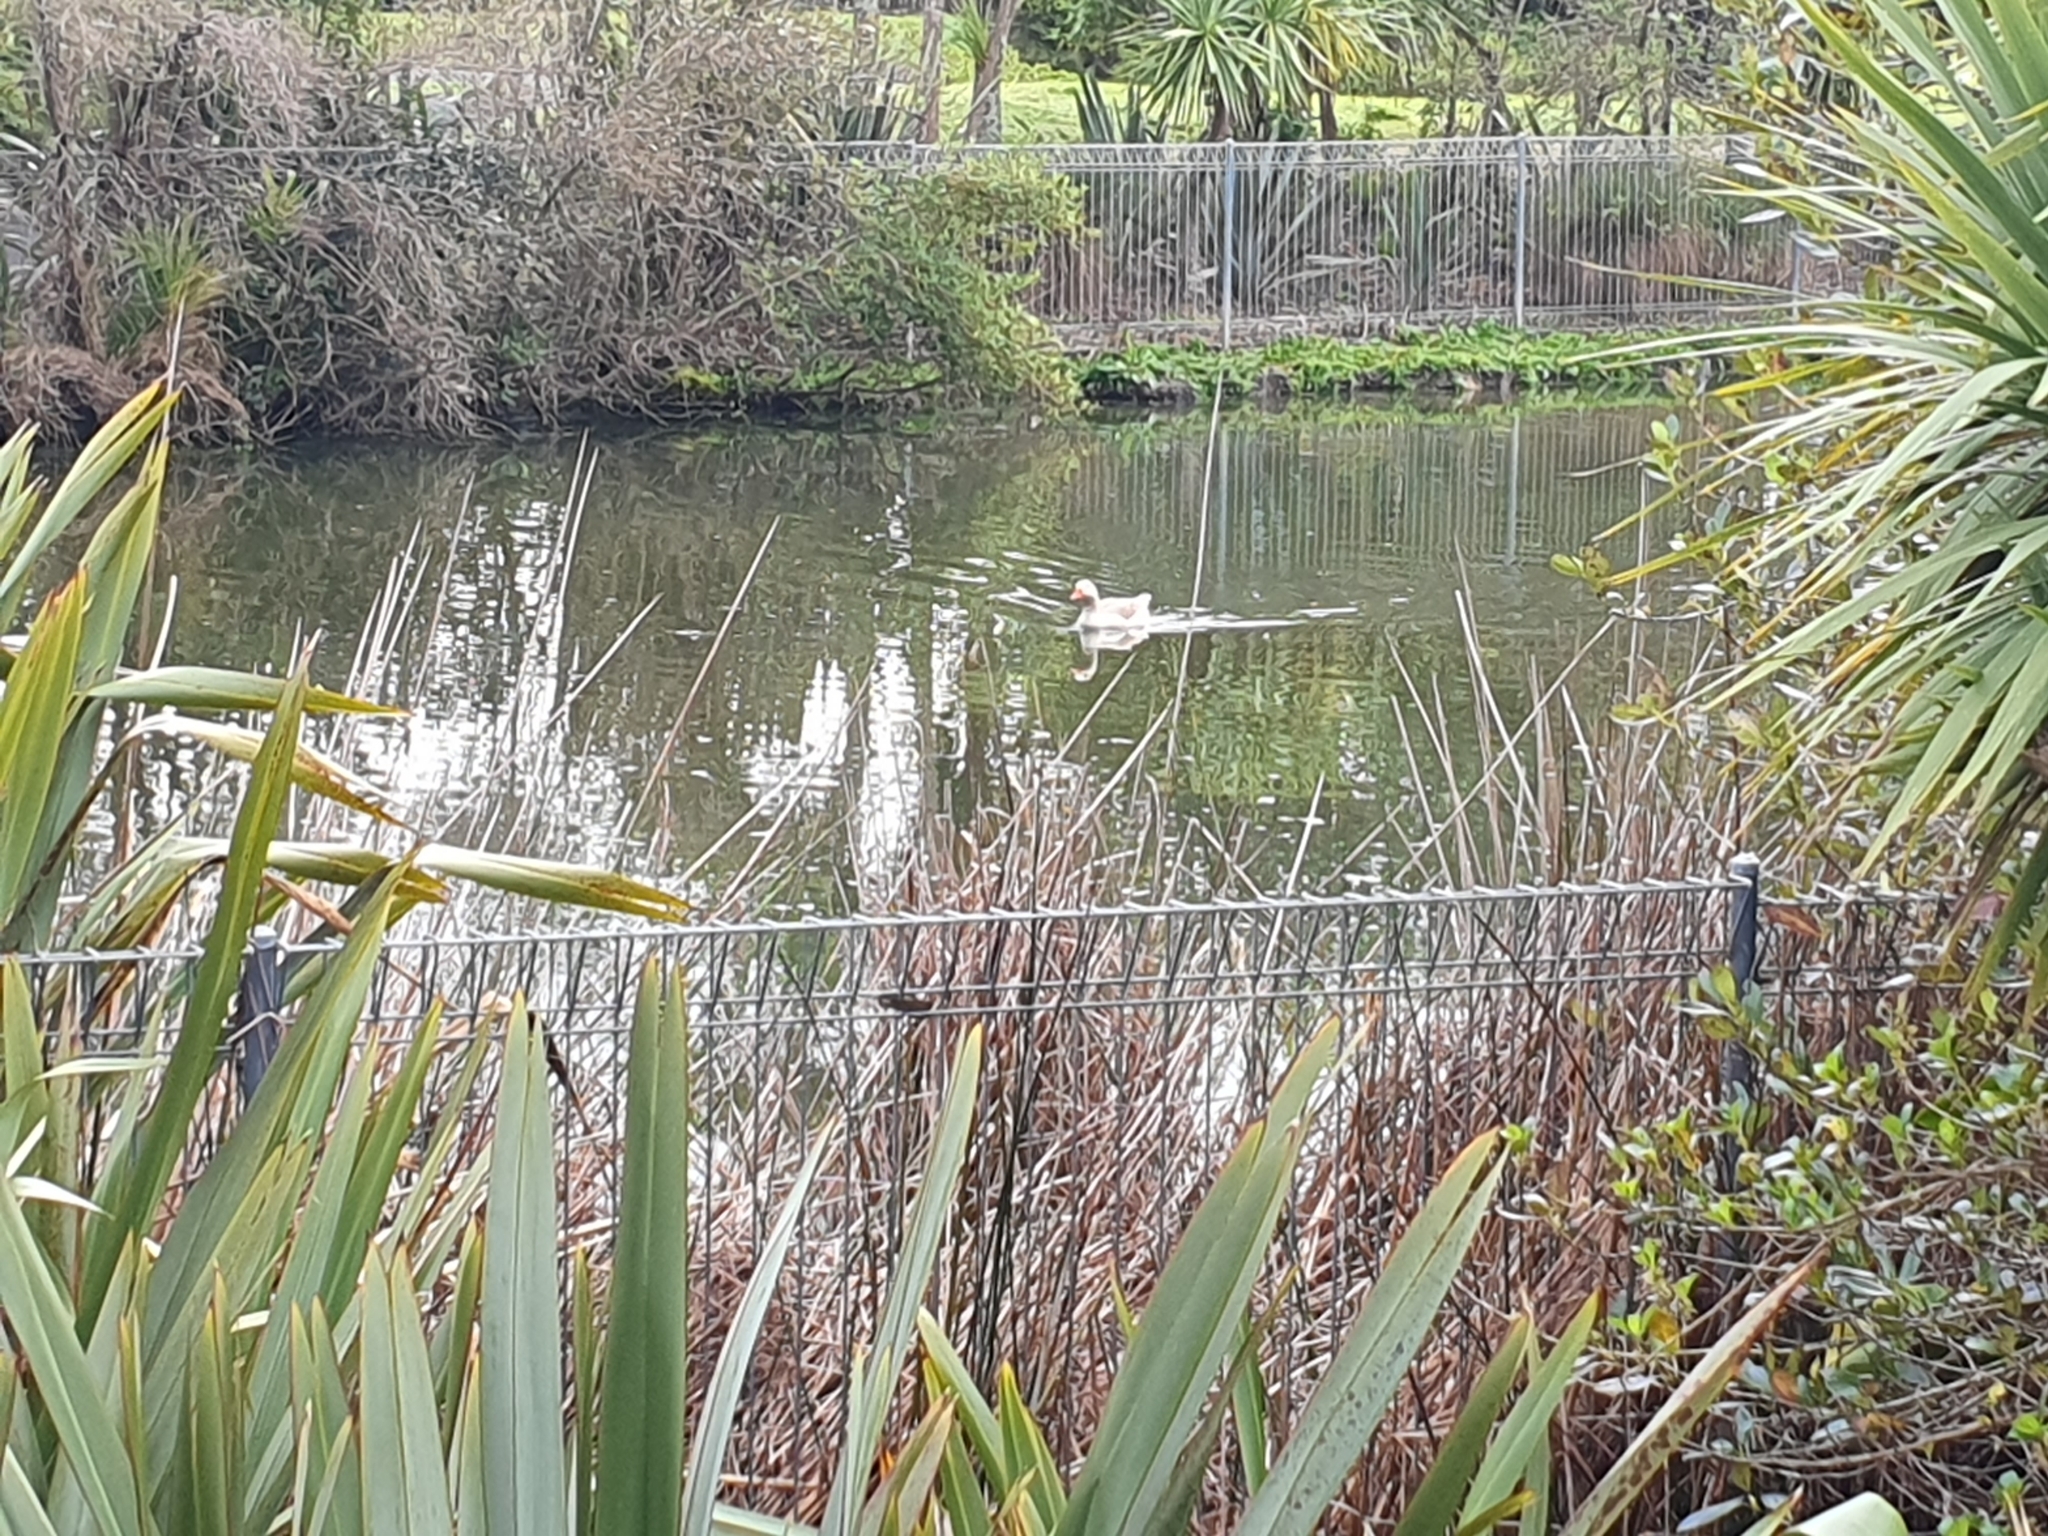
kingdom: Animalia
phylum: Chordata
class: Aves
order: Anseriformes
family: Anatidae
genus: Anser
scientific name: Anser anser
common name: Greylag goose
